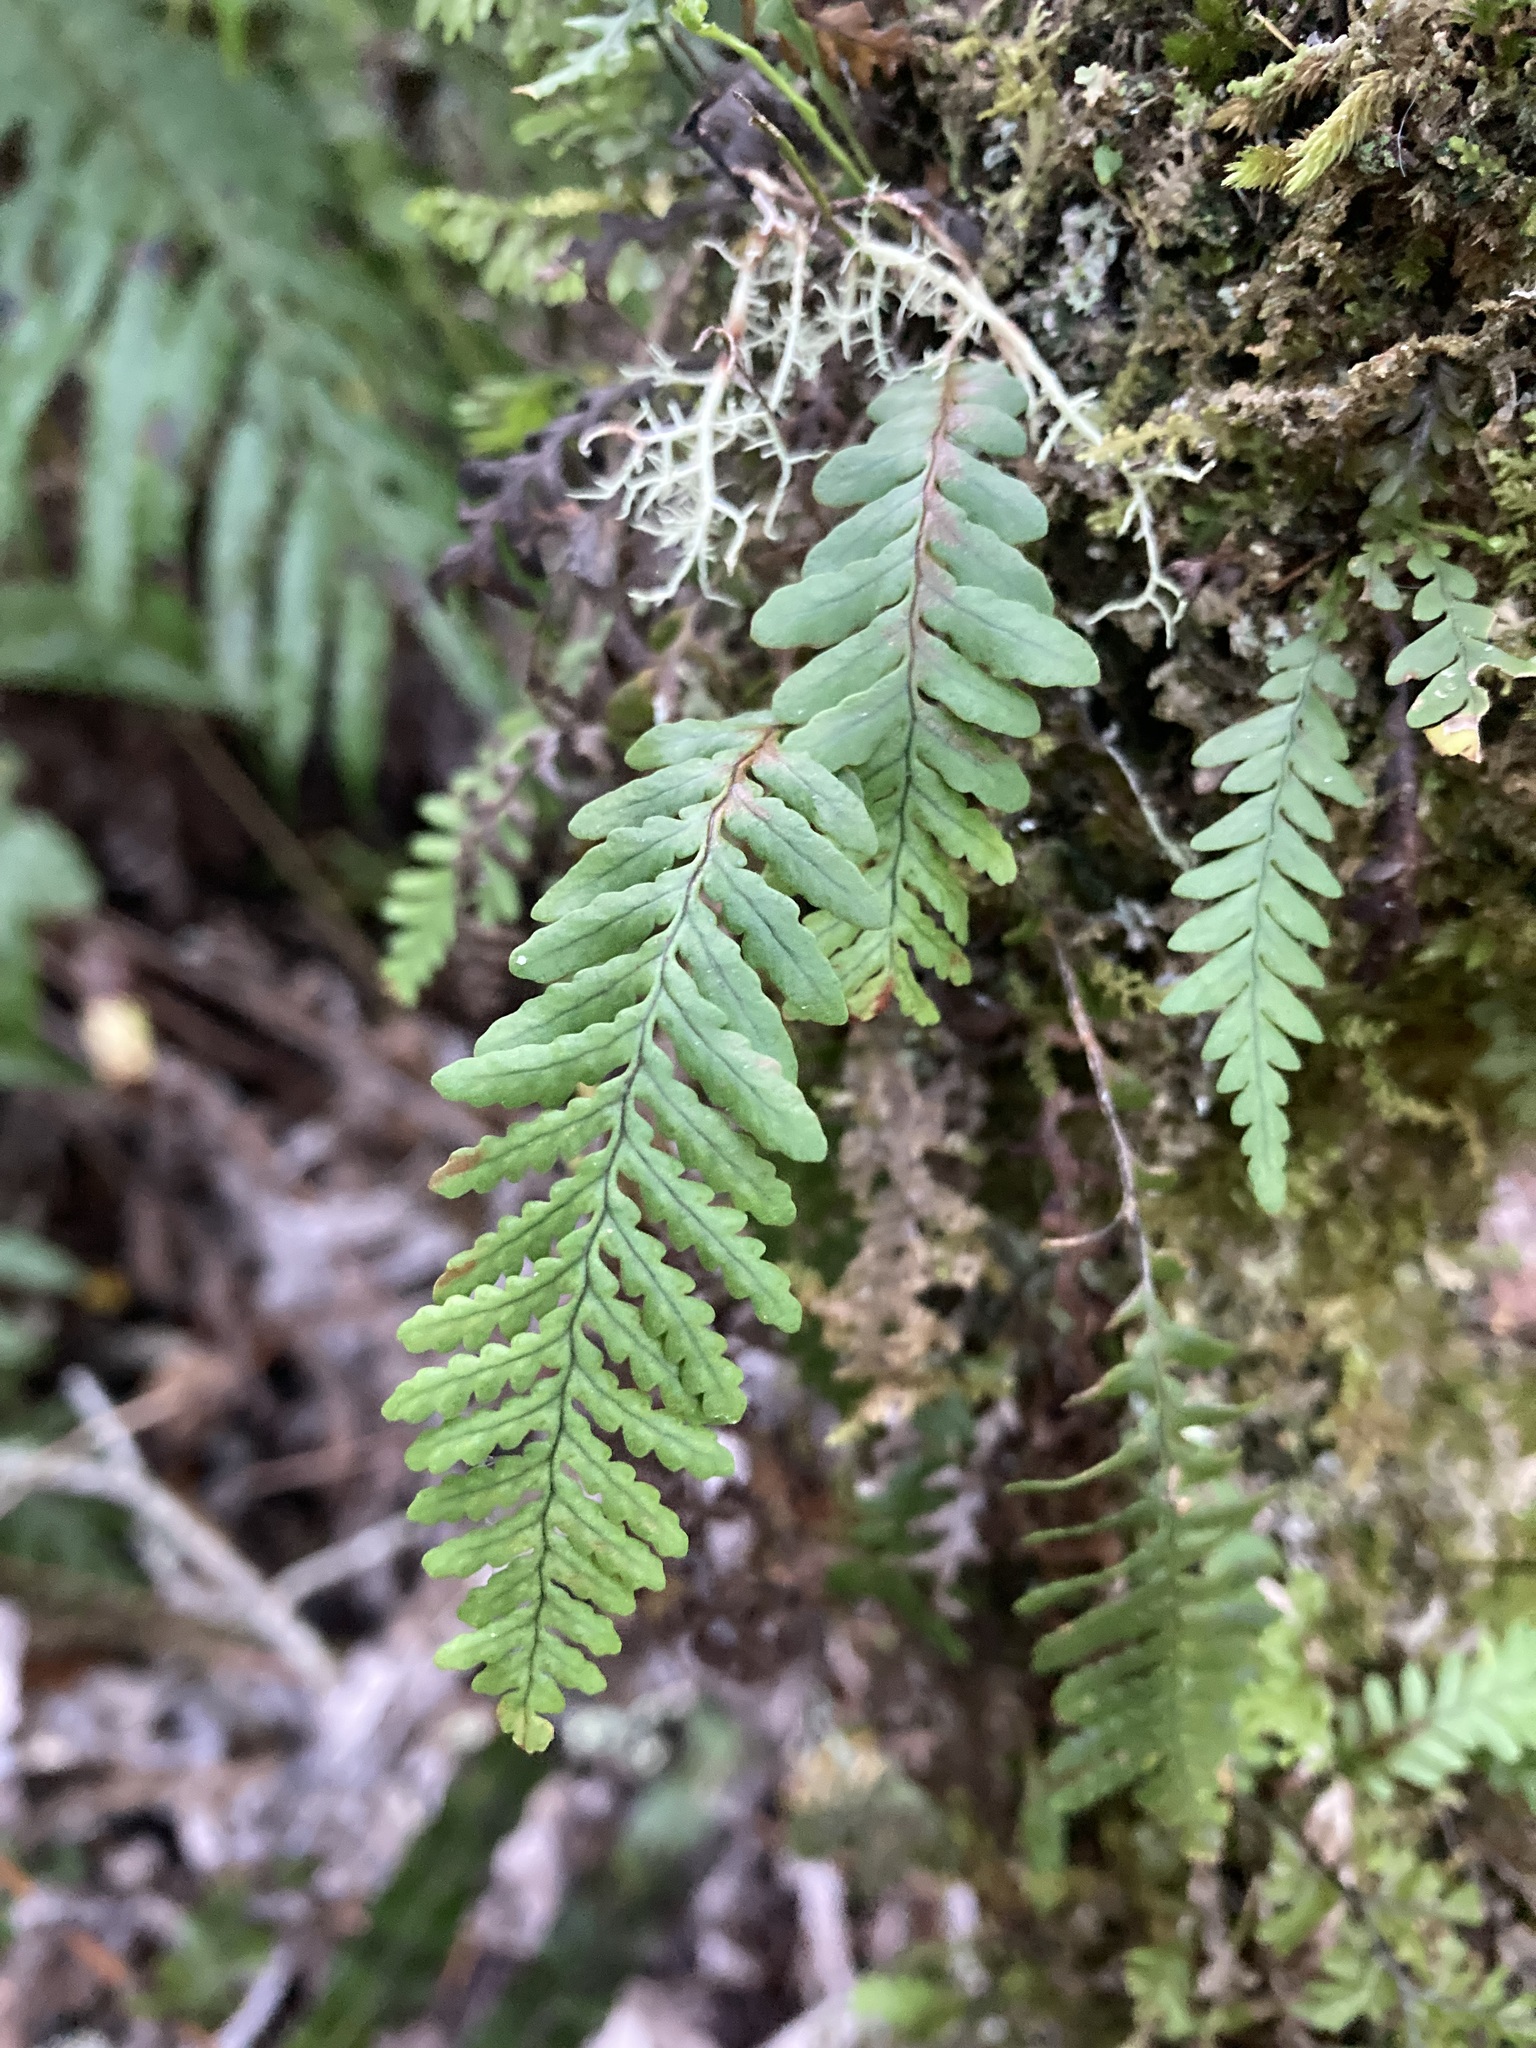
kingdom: Plantae
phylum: Tracheophyta
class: Polypodiopsida
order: Polypodiales
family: Polypodiaceae
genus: Notogrammitis
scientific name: Notogrammitis heterophylla
